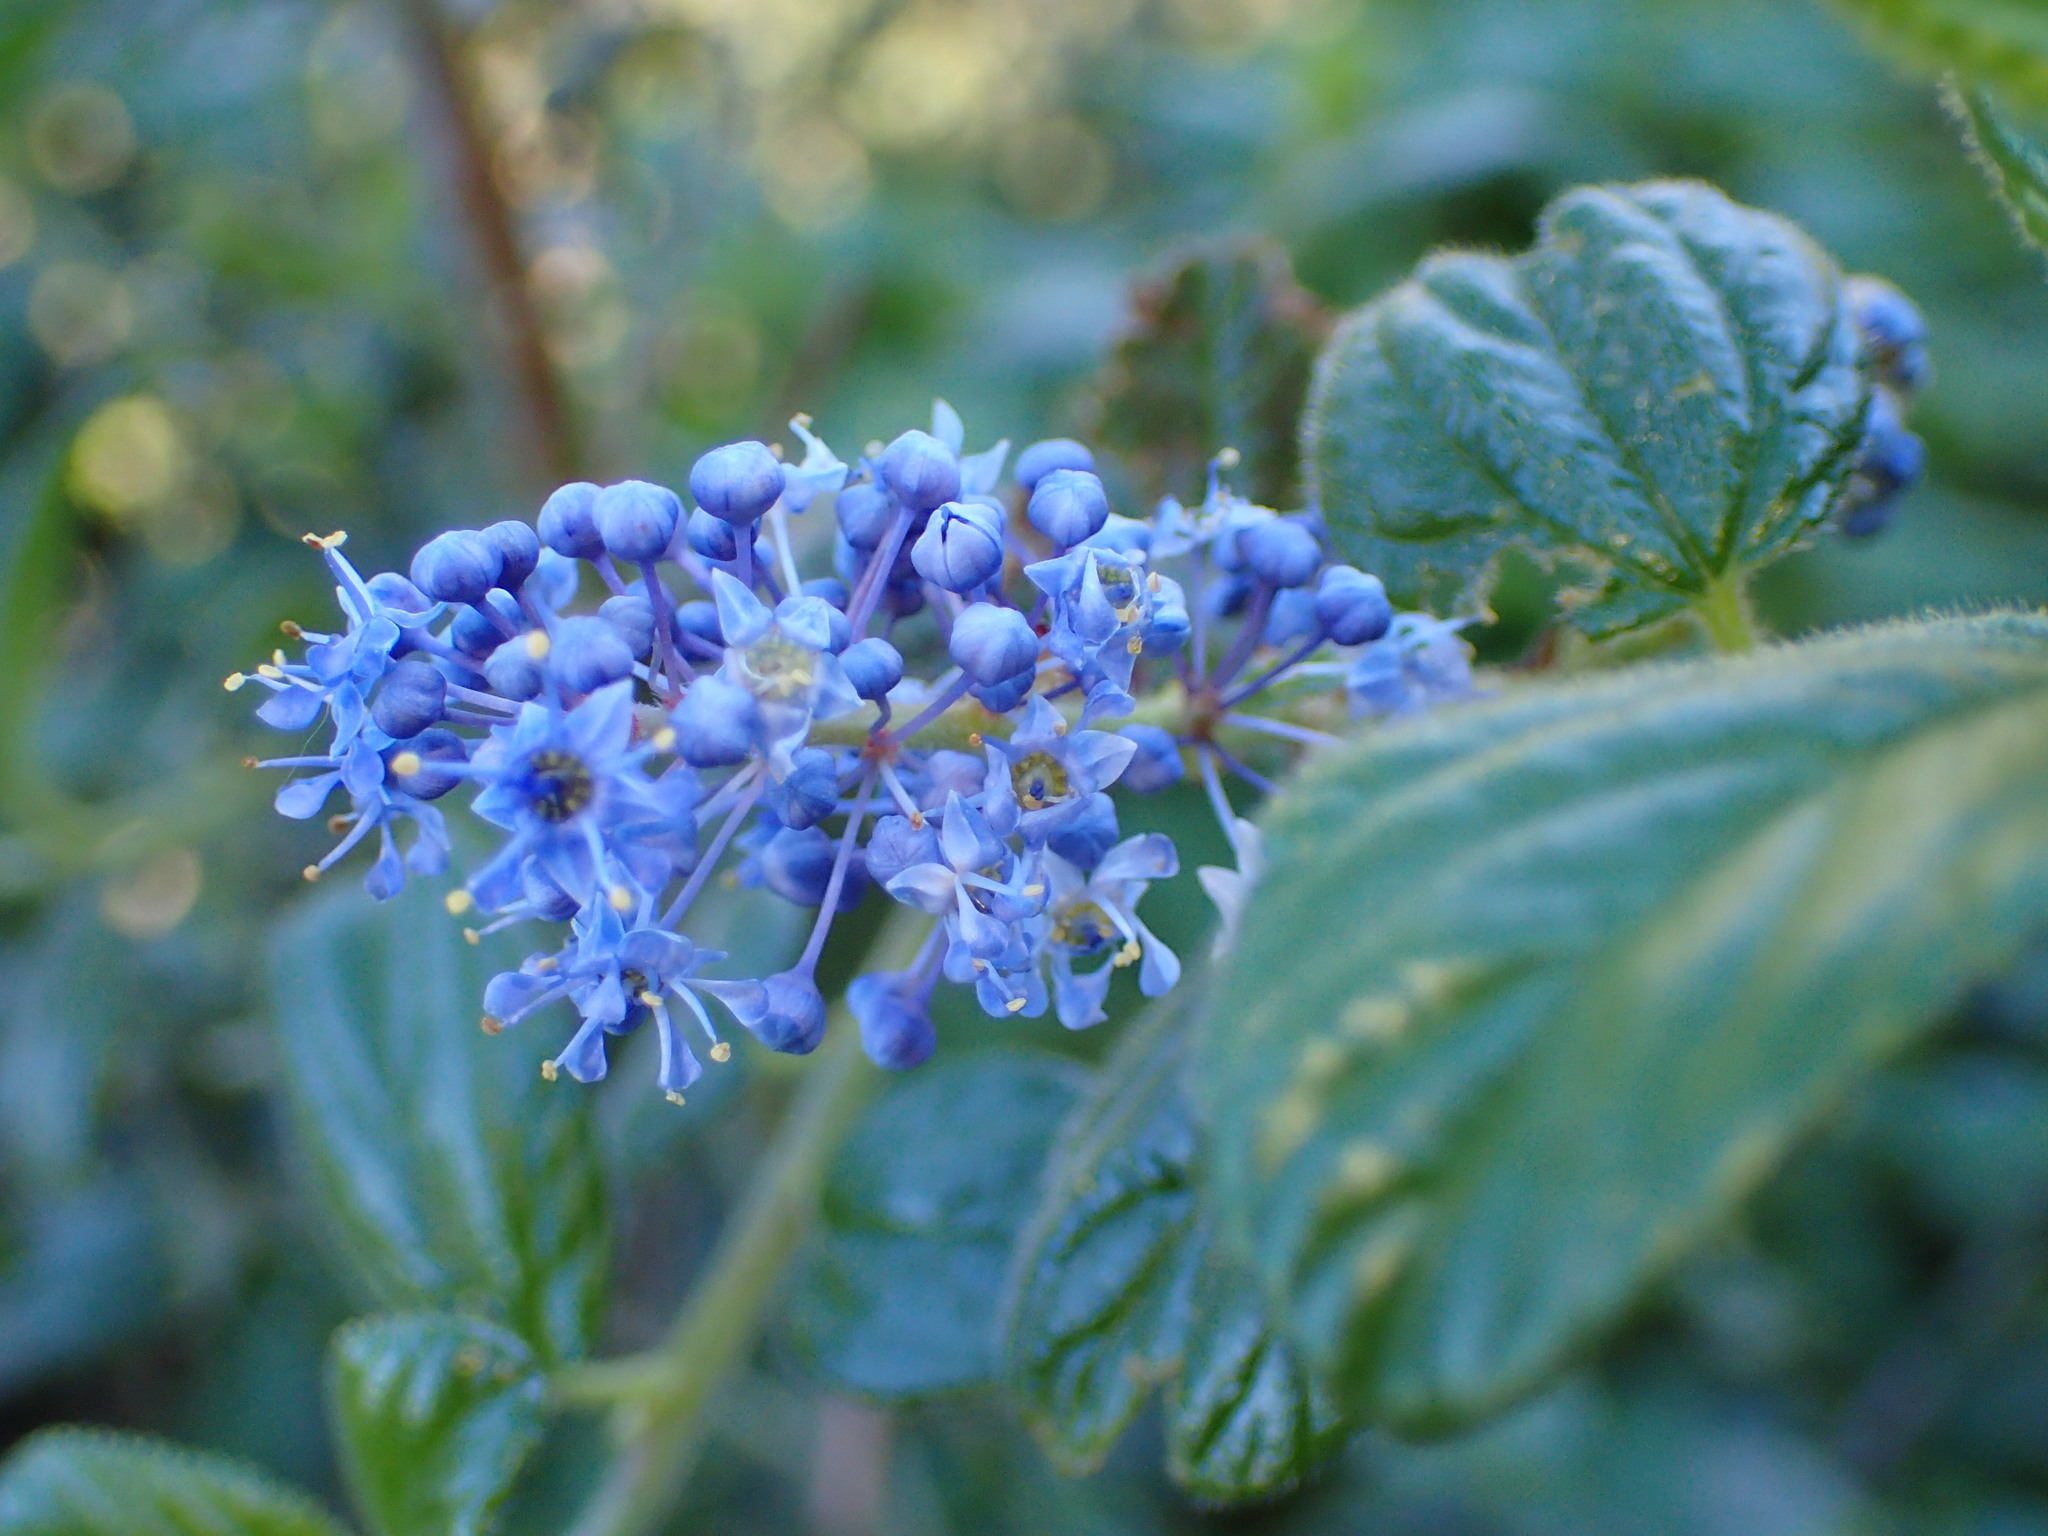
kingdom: Plantae
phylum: Tracheophyta
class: Magnoliopsida
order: Rosales
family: Rhamnaceae
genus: Ceanothus
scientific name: Ceanothus oliganthus
